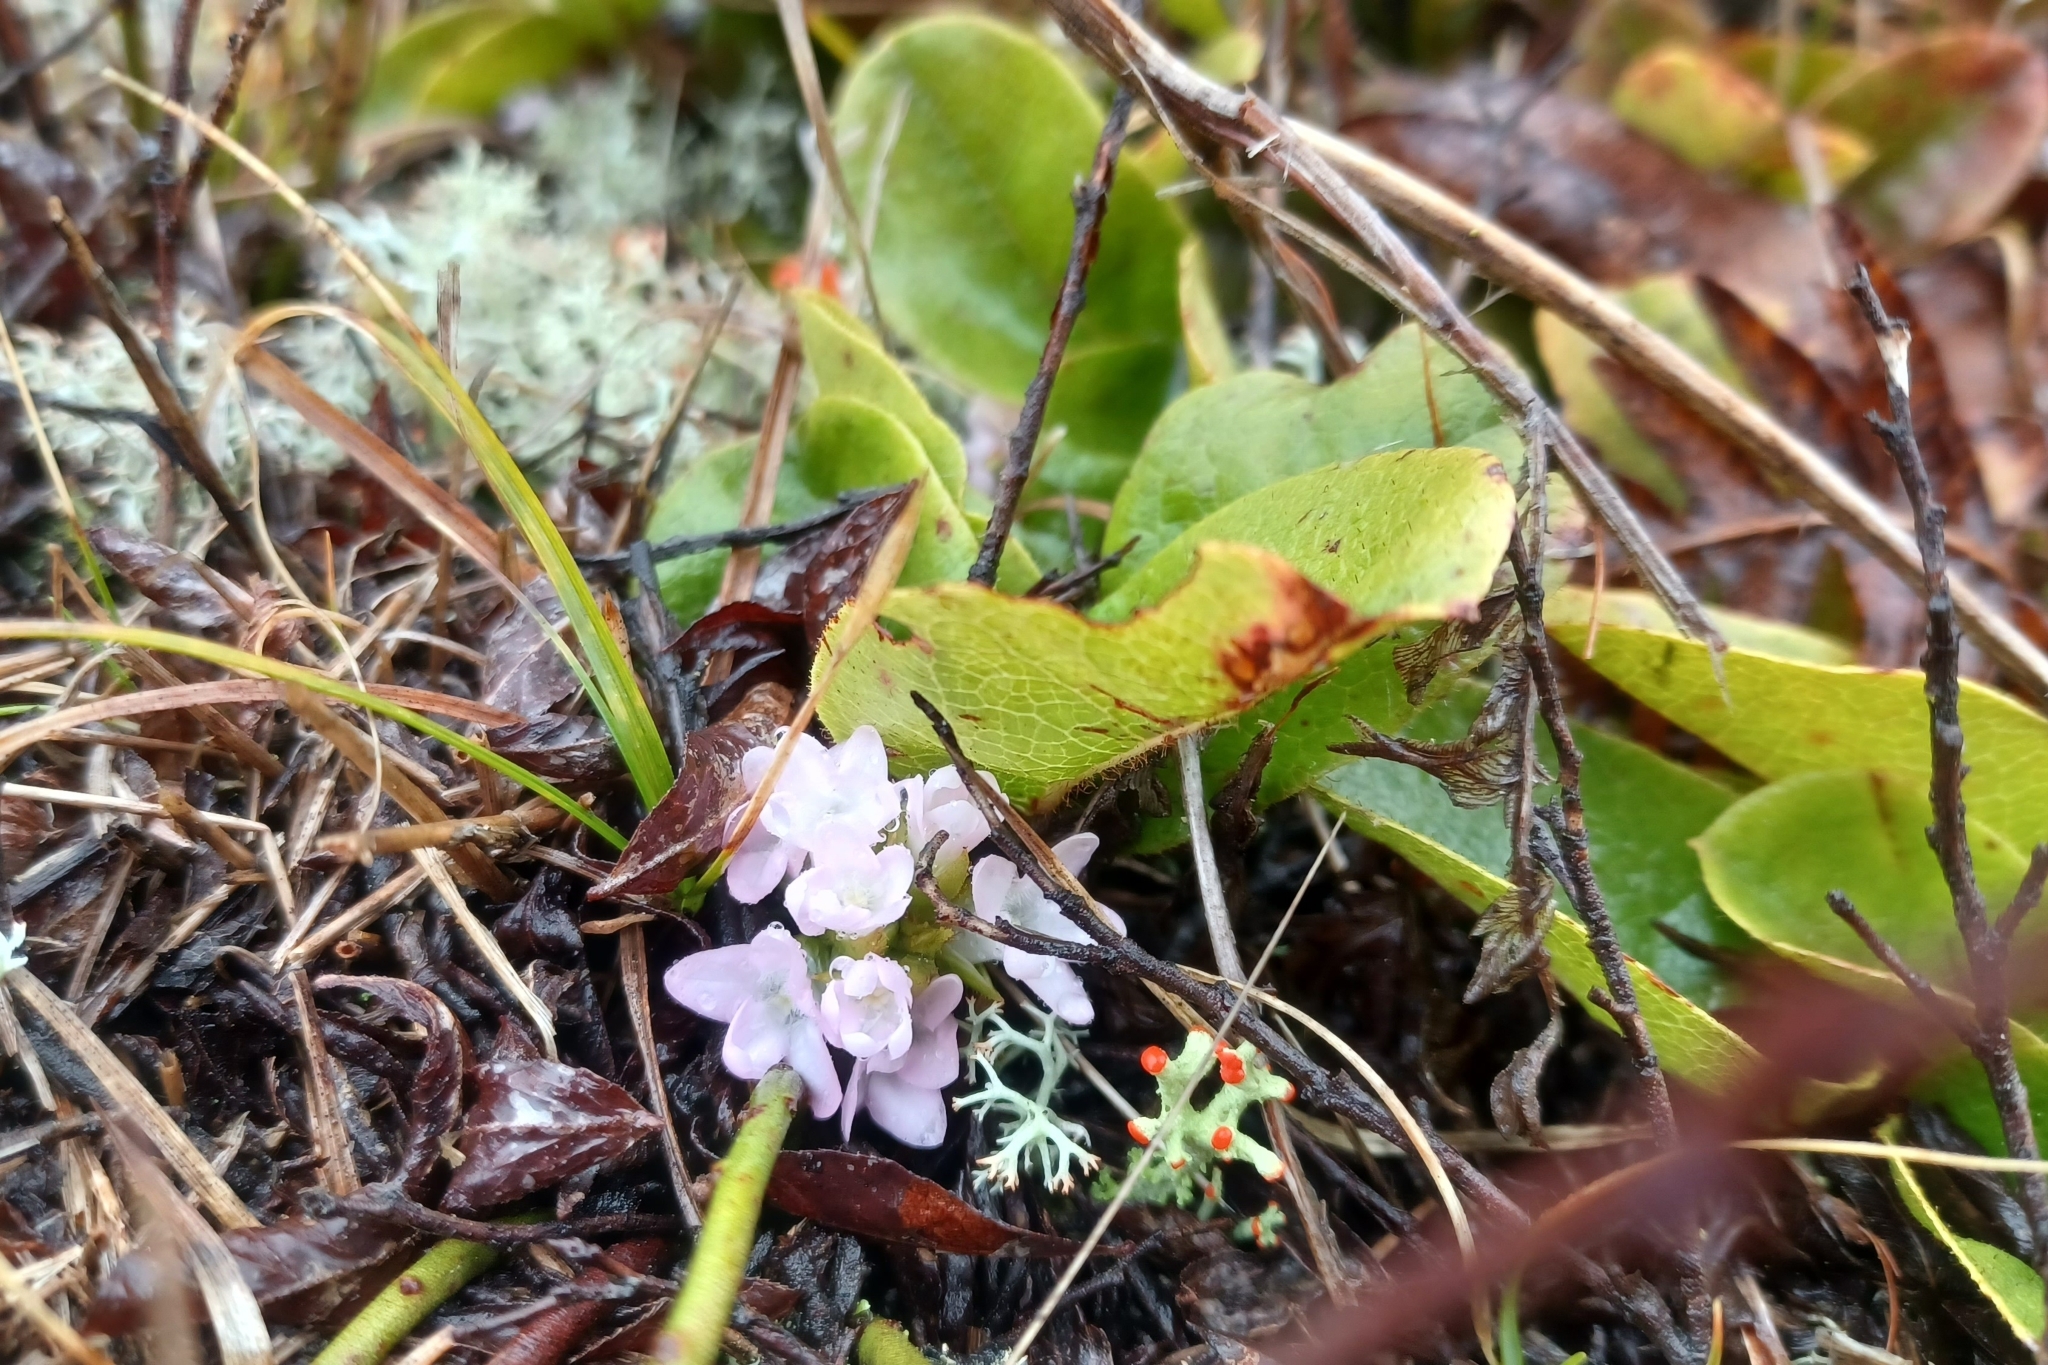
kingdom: Plantae
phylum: Tracheophyta
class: Magnoliopsida
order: Ericales
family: Ericaceae
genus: Epigaea
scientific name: Epigaea repens
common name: Gravelroot
